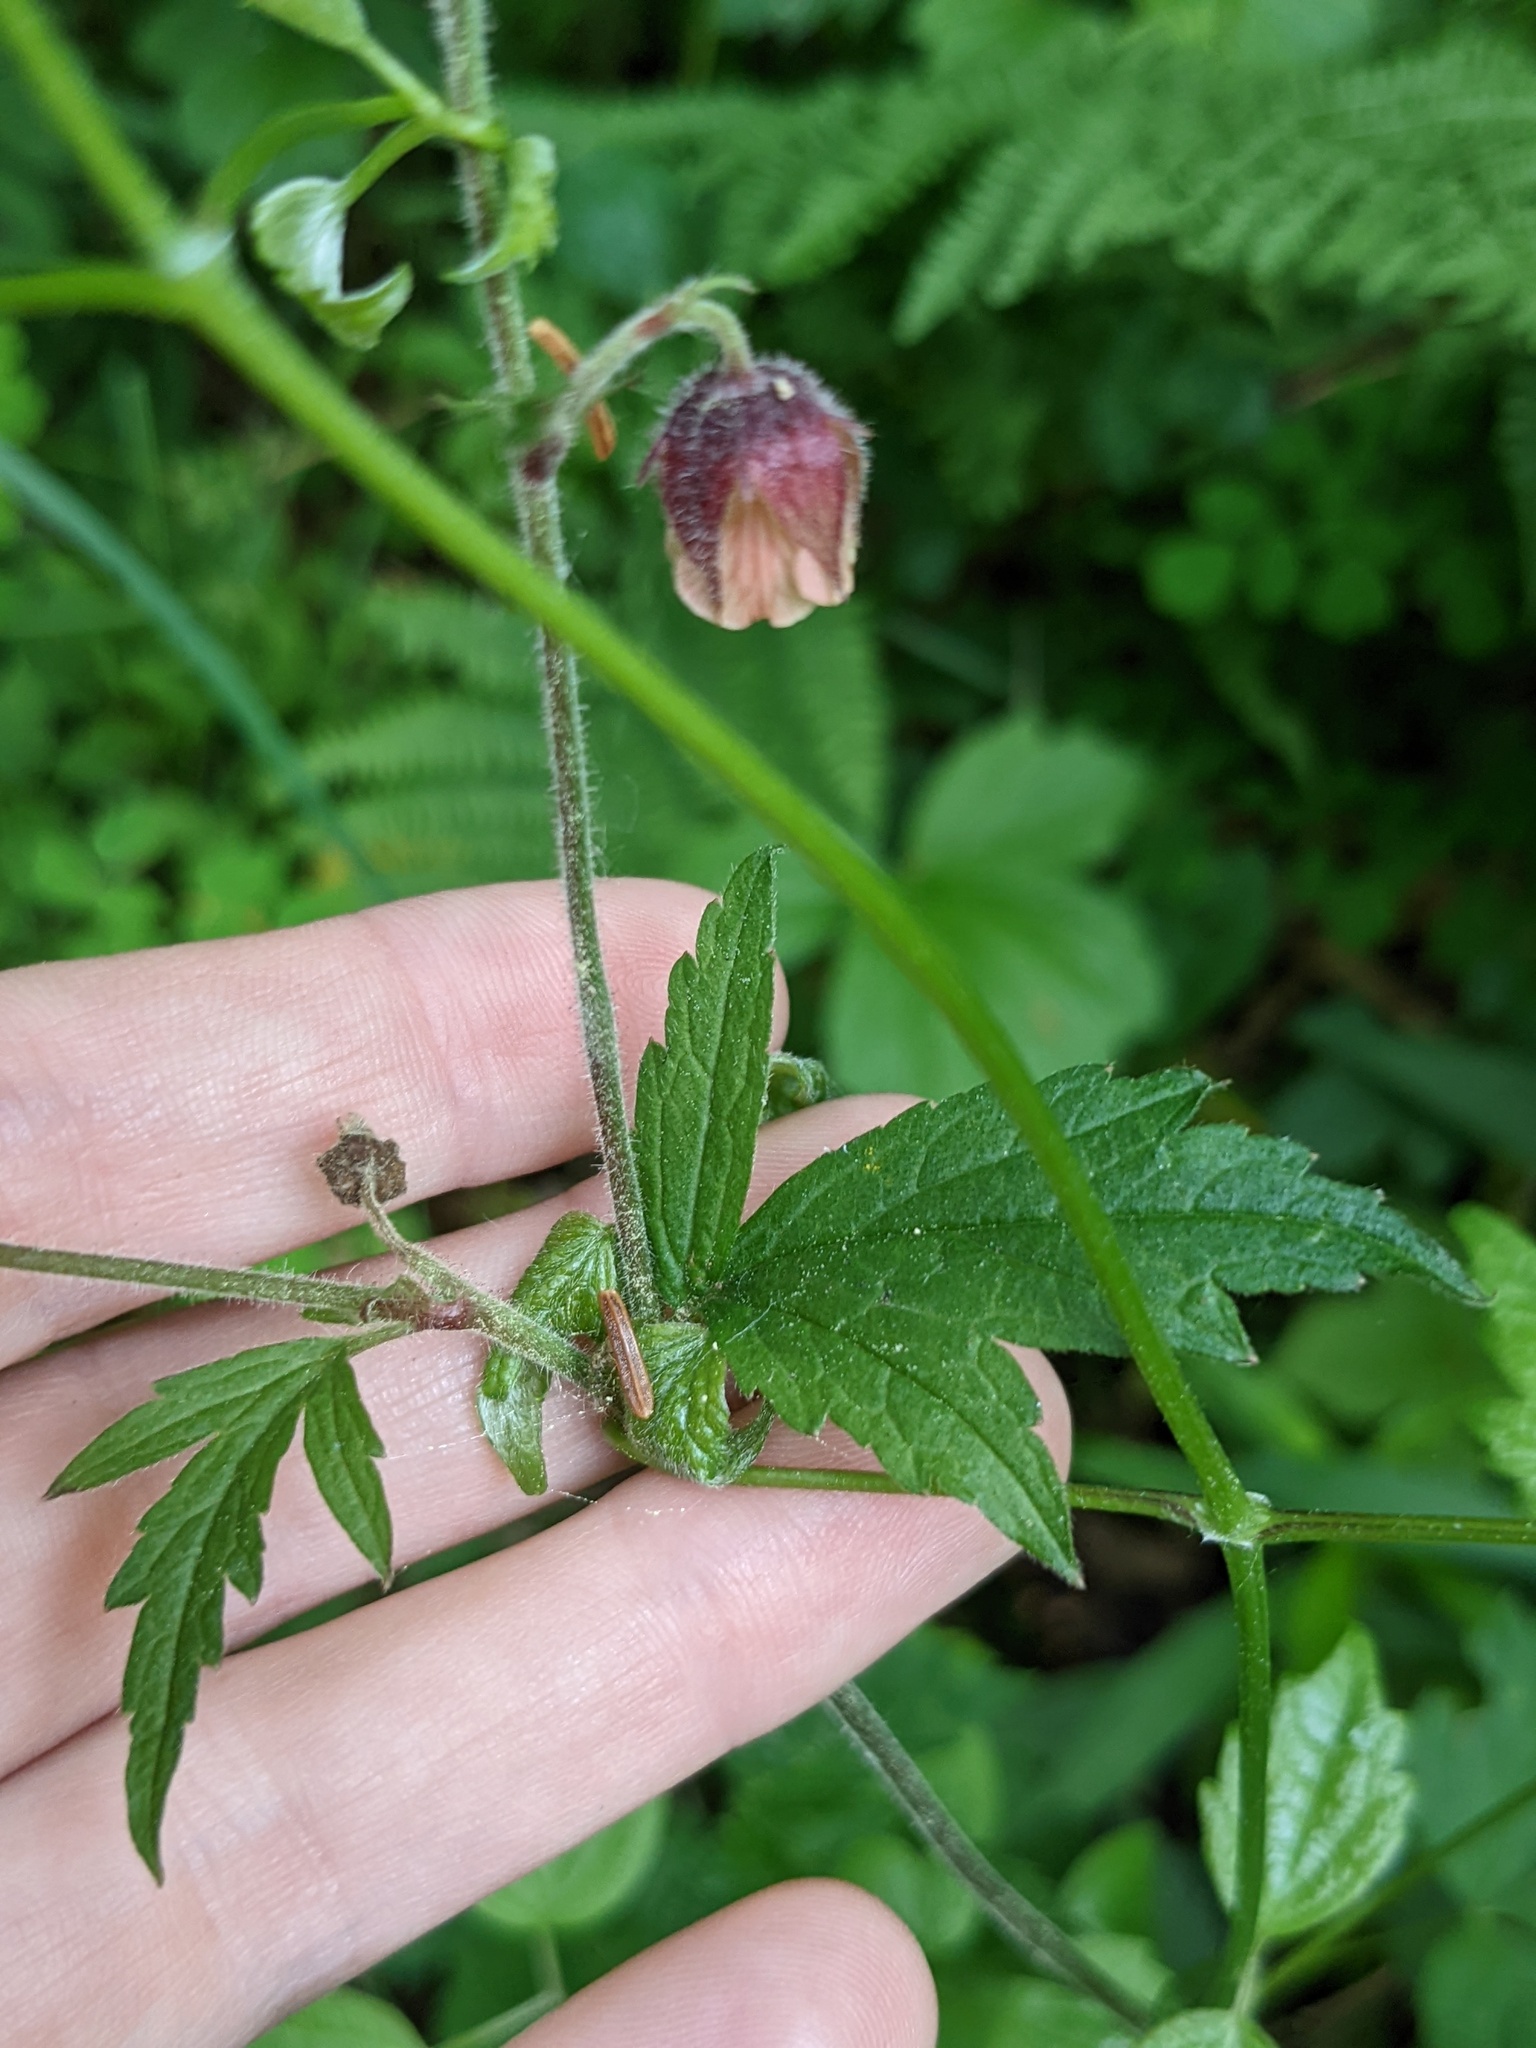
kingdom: Plantae
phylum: Tracheophyta
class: Magnoliopsida
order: Rosales
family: Rosaceae
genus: Geum
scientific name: Geum rivale
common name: Water avens
